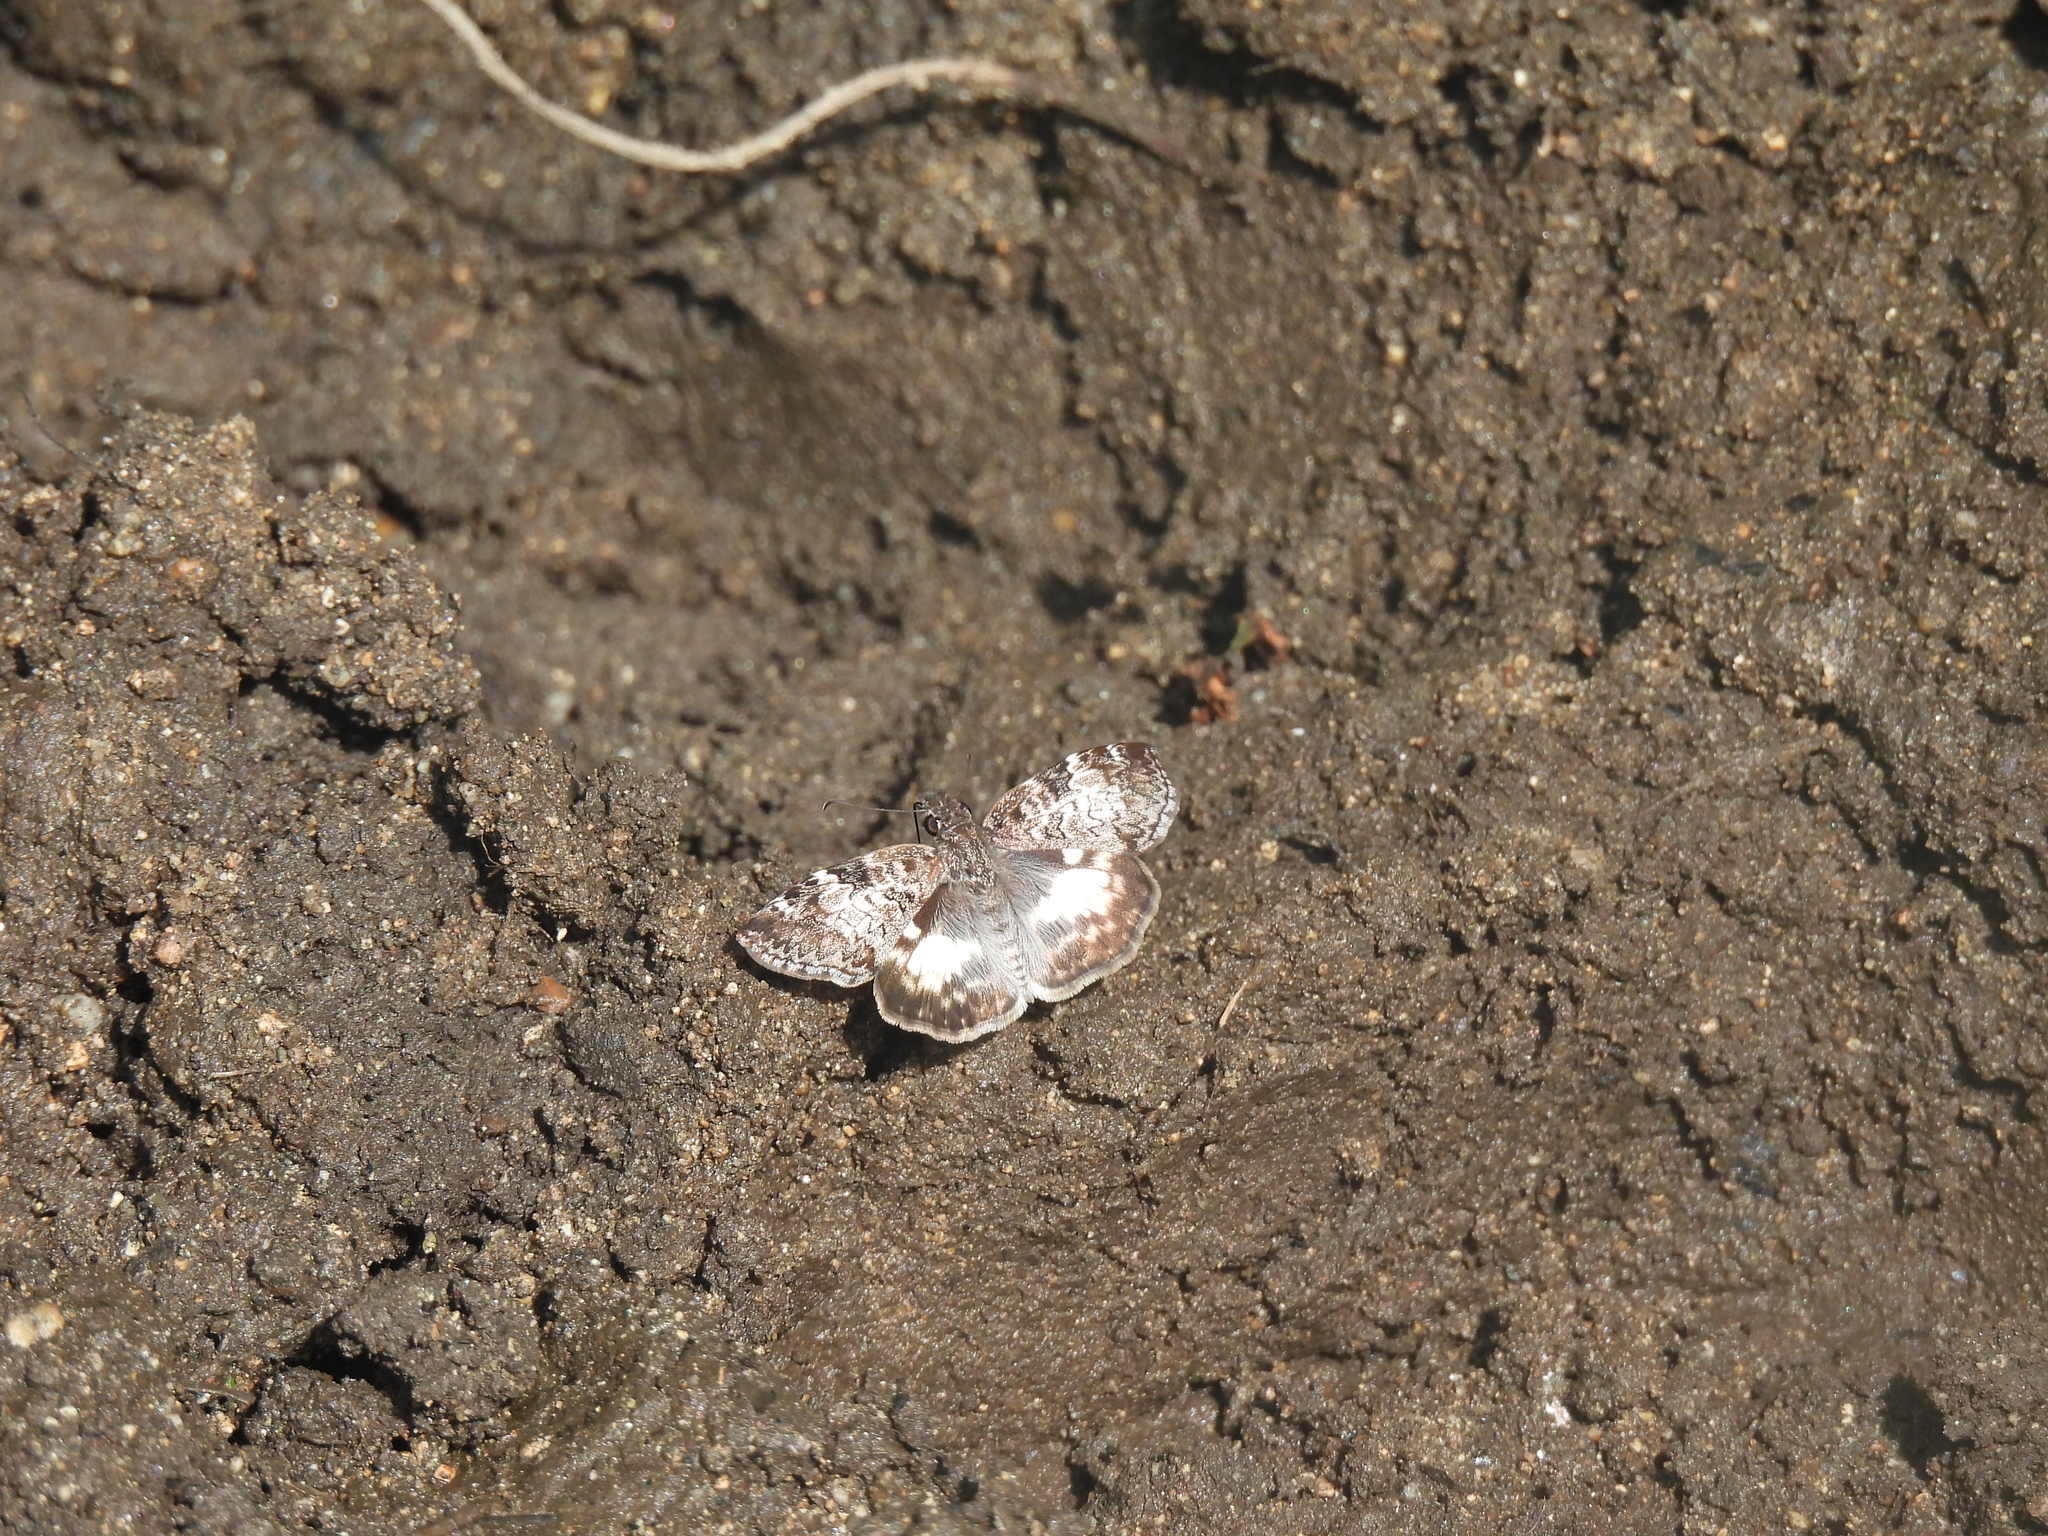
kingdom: Animalia
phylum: Arthropoda
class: Insecta
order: Lepidoptera
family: Hesperiidae
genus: Chiothion
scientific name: Chiothion georgina
